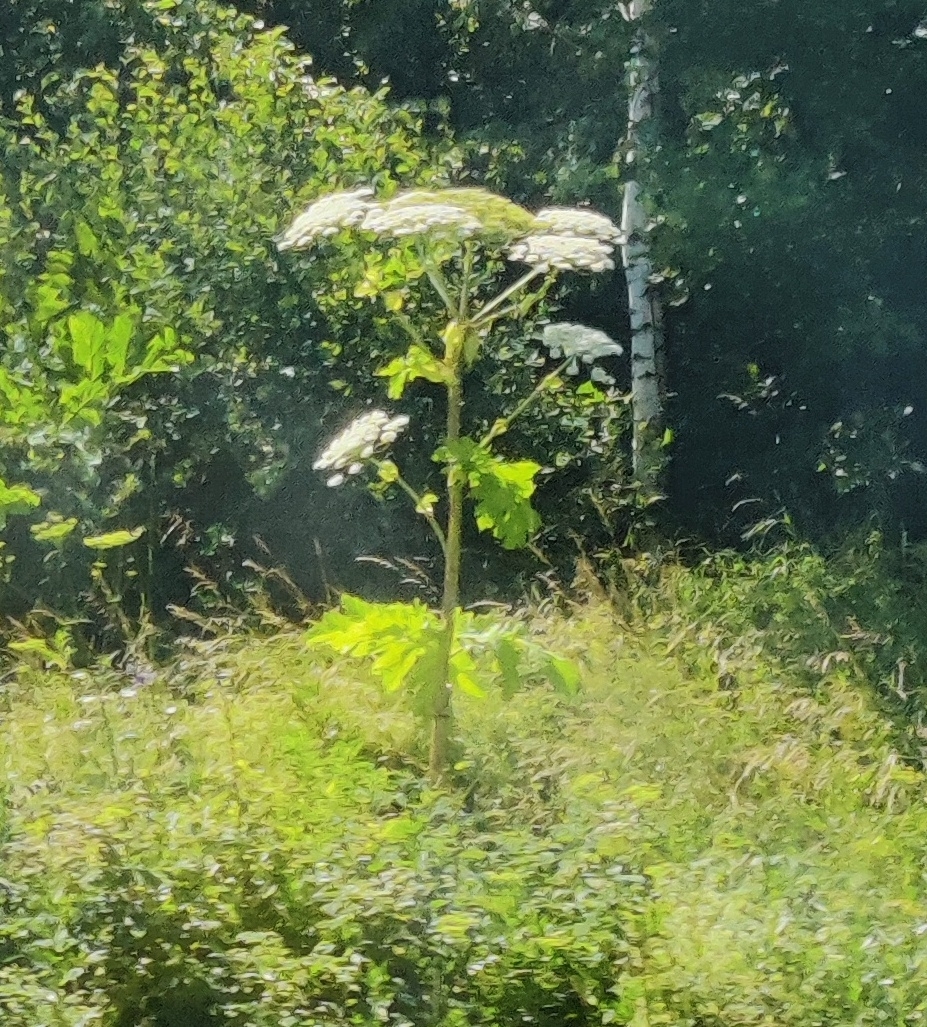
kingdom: Plantae
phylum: Tracheophyta
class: Magnoliopsida
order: Apiales
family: Apiaceae
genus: Heracleum
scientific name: Heracleum sosnowskyi
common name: Sosnowsky's hogweed
